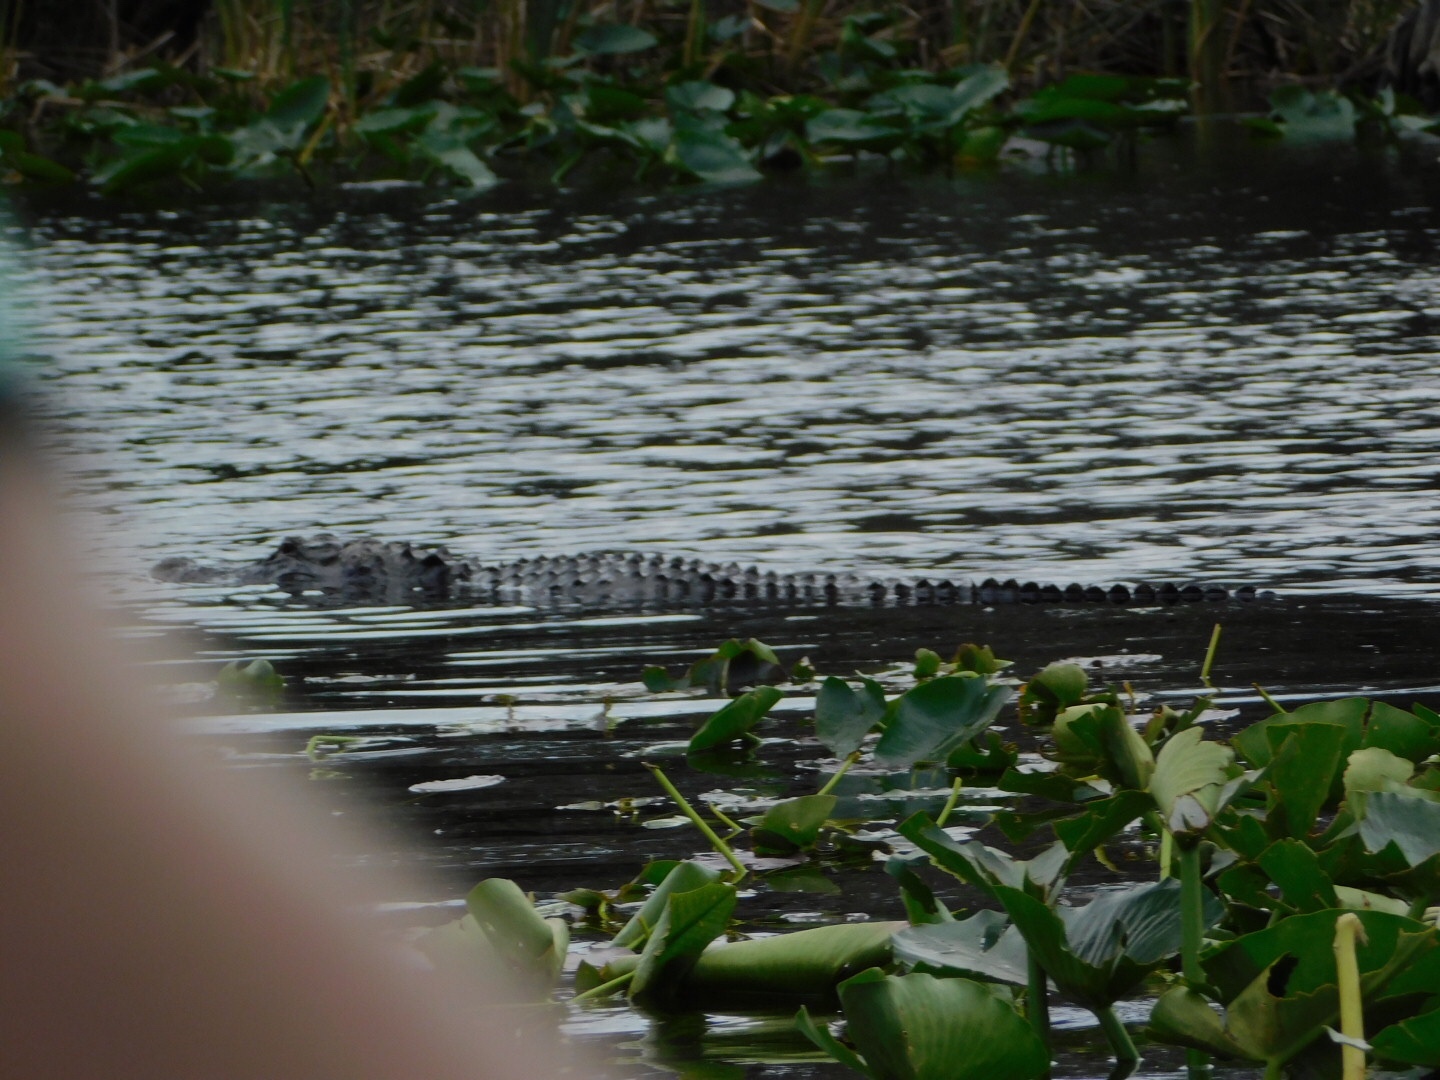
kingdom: Animalia
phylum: Chordata
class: Crocodylia
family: Alligatoridae
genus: Alligator
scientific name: Alligator mississippiensis
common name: American alligator
